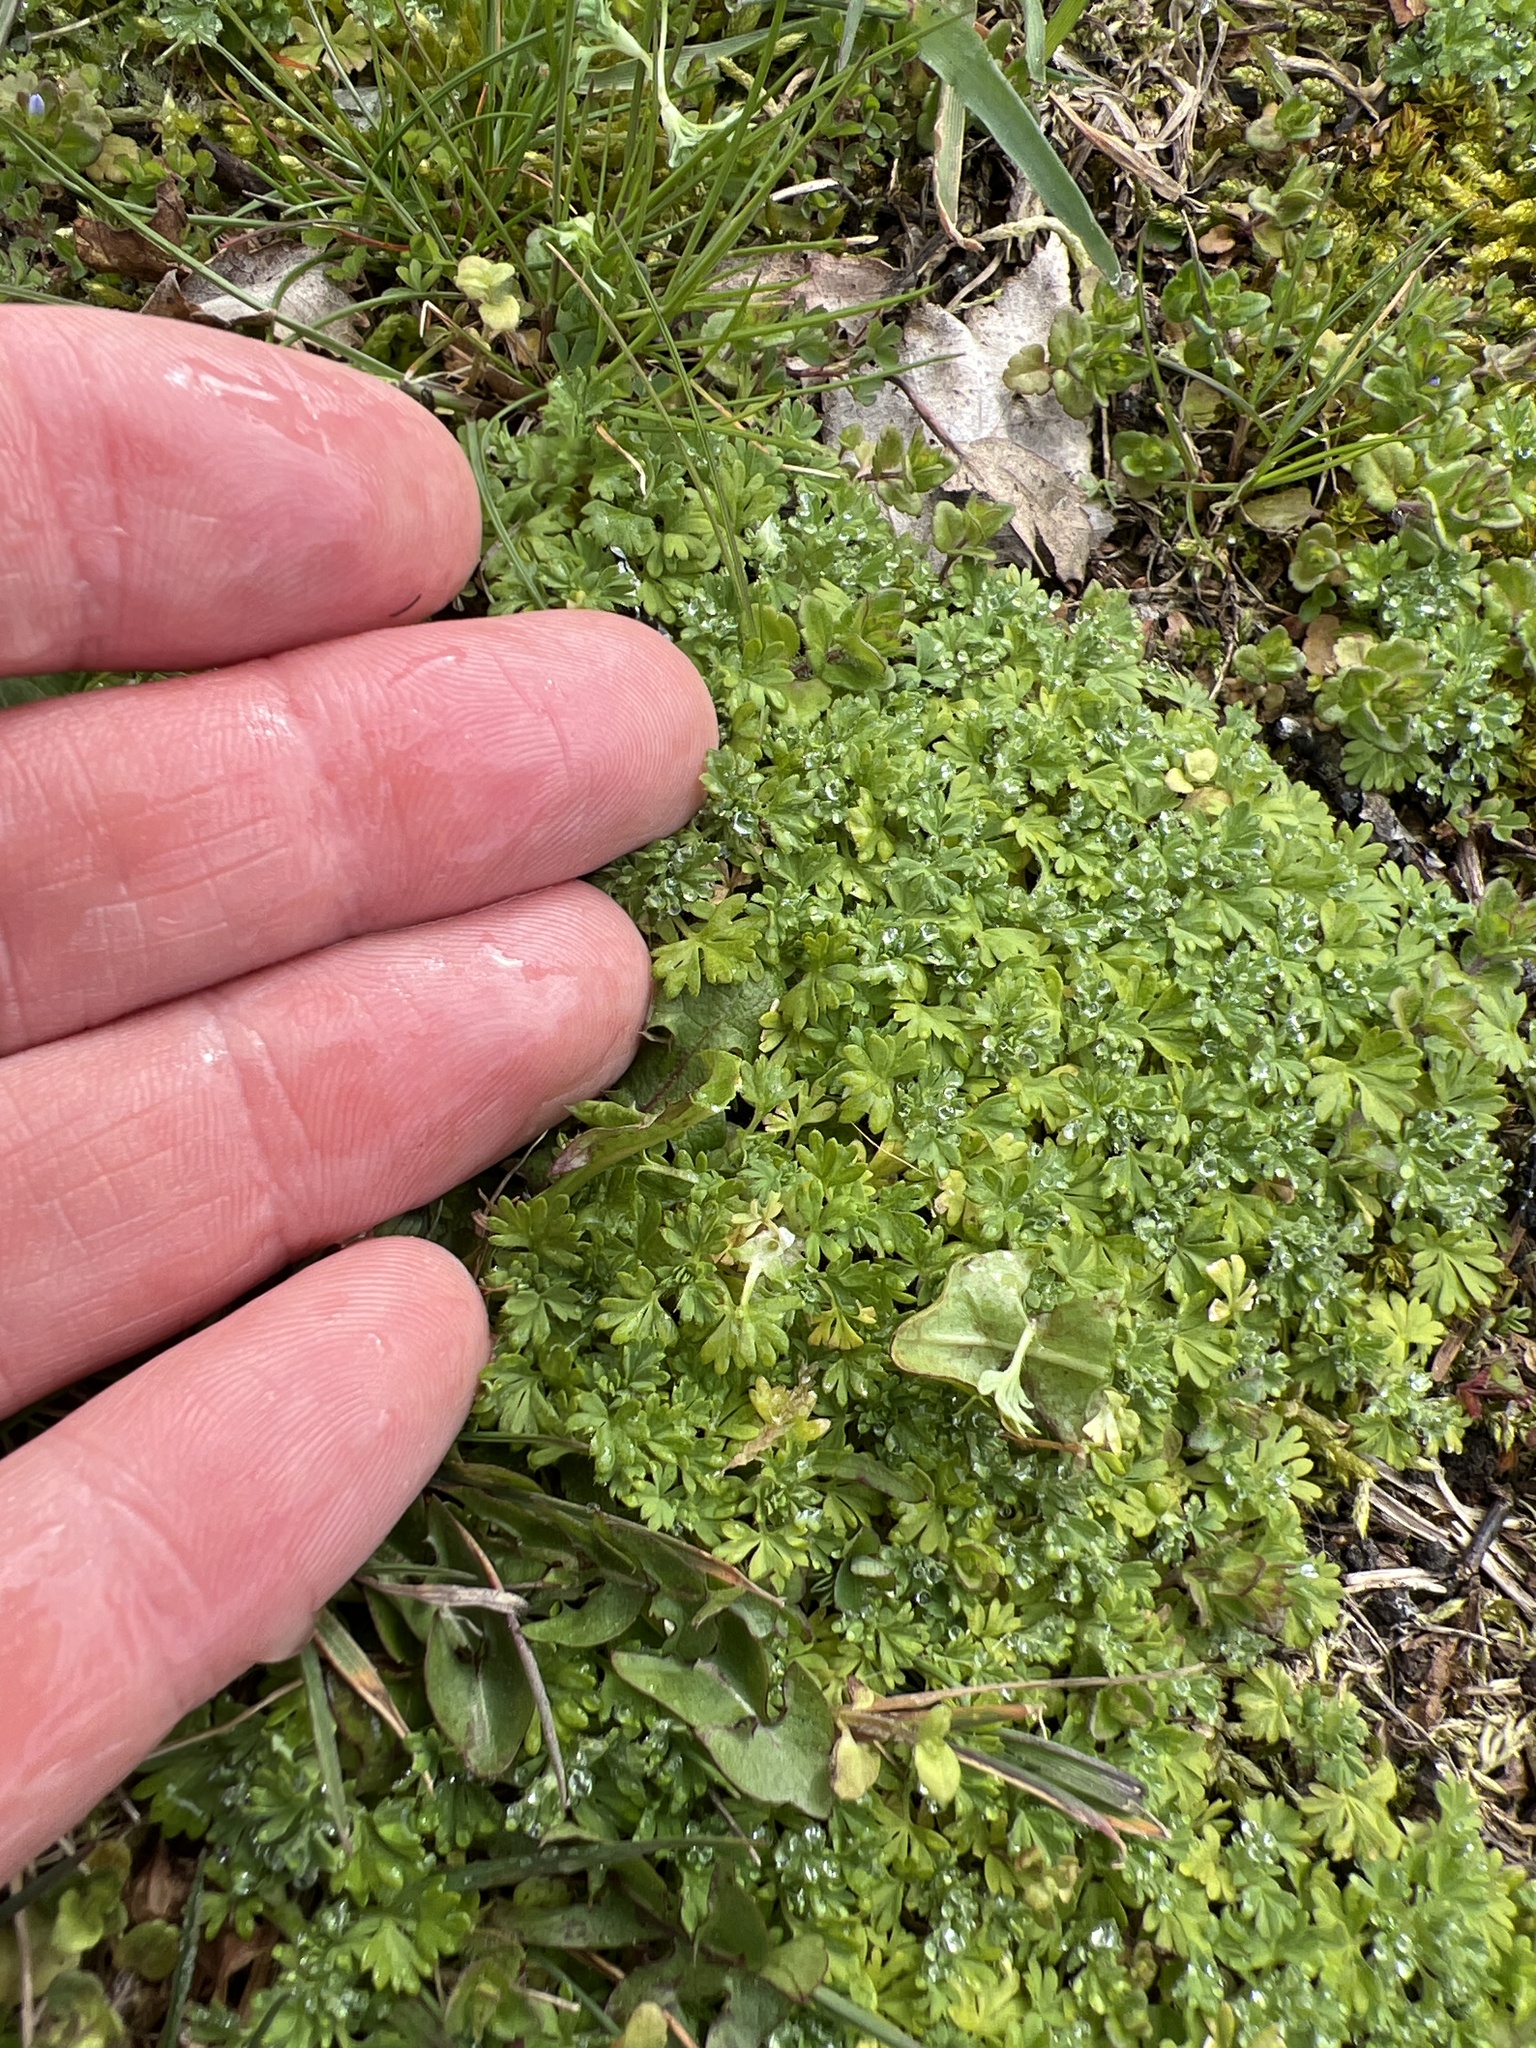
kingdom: Plantae
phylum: Tracheophyta
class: Magnoliopsida
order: Rosales
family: Rosaceae
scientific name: Rosaceae
